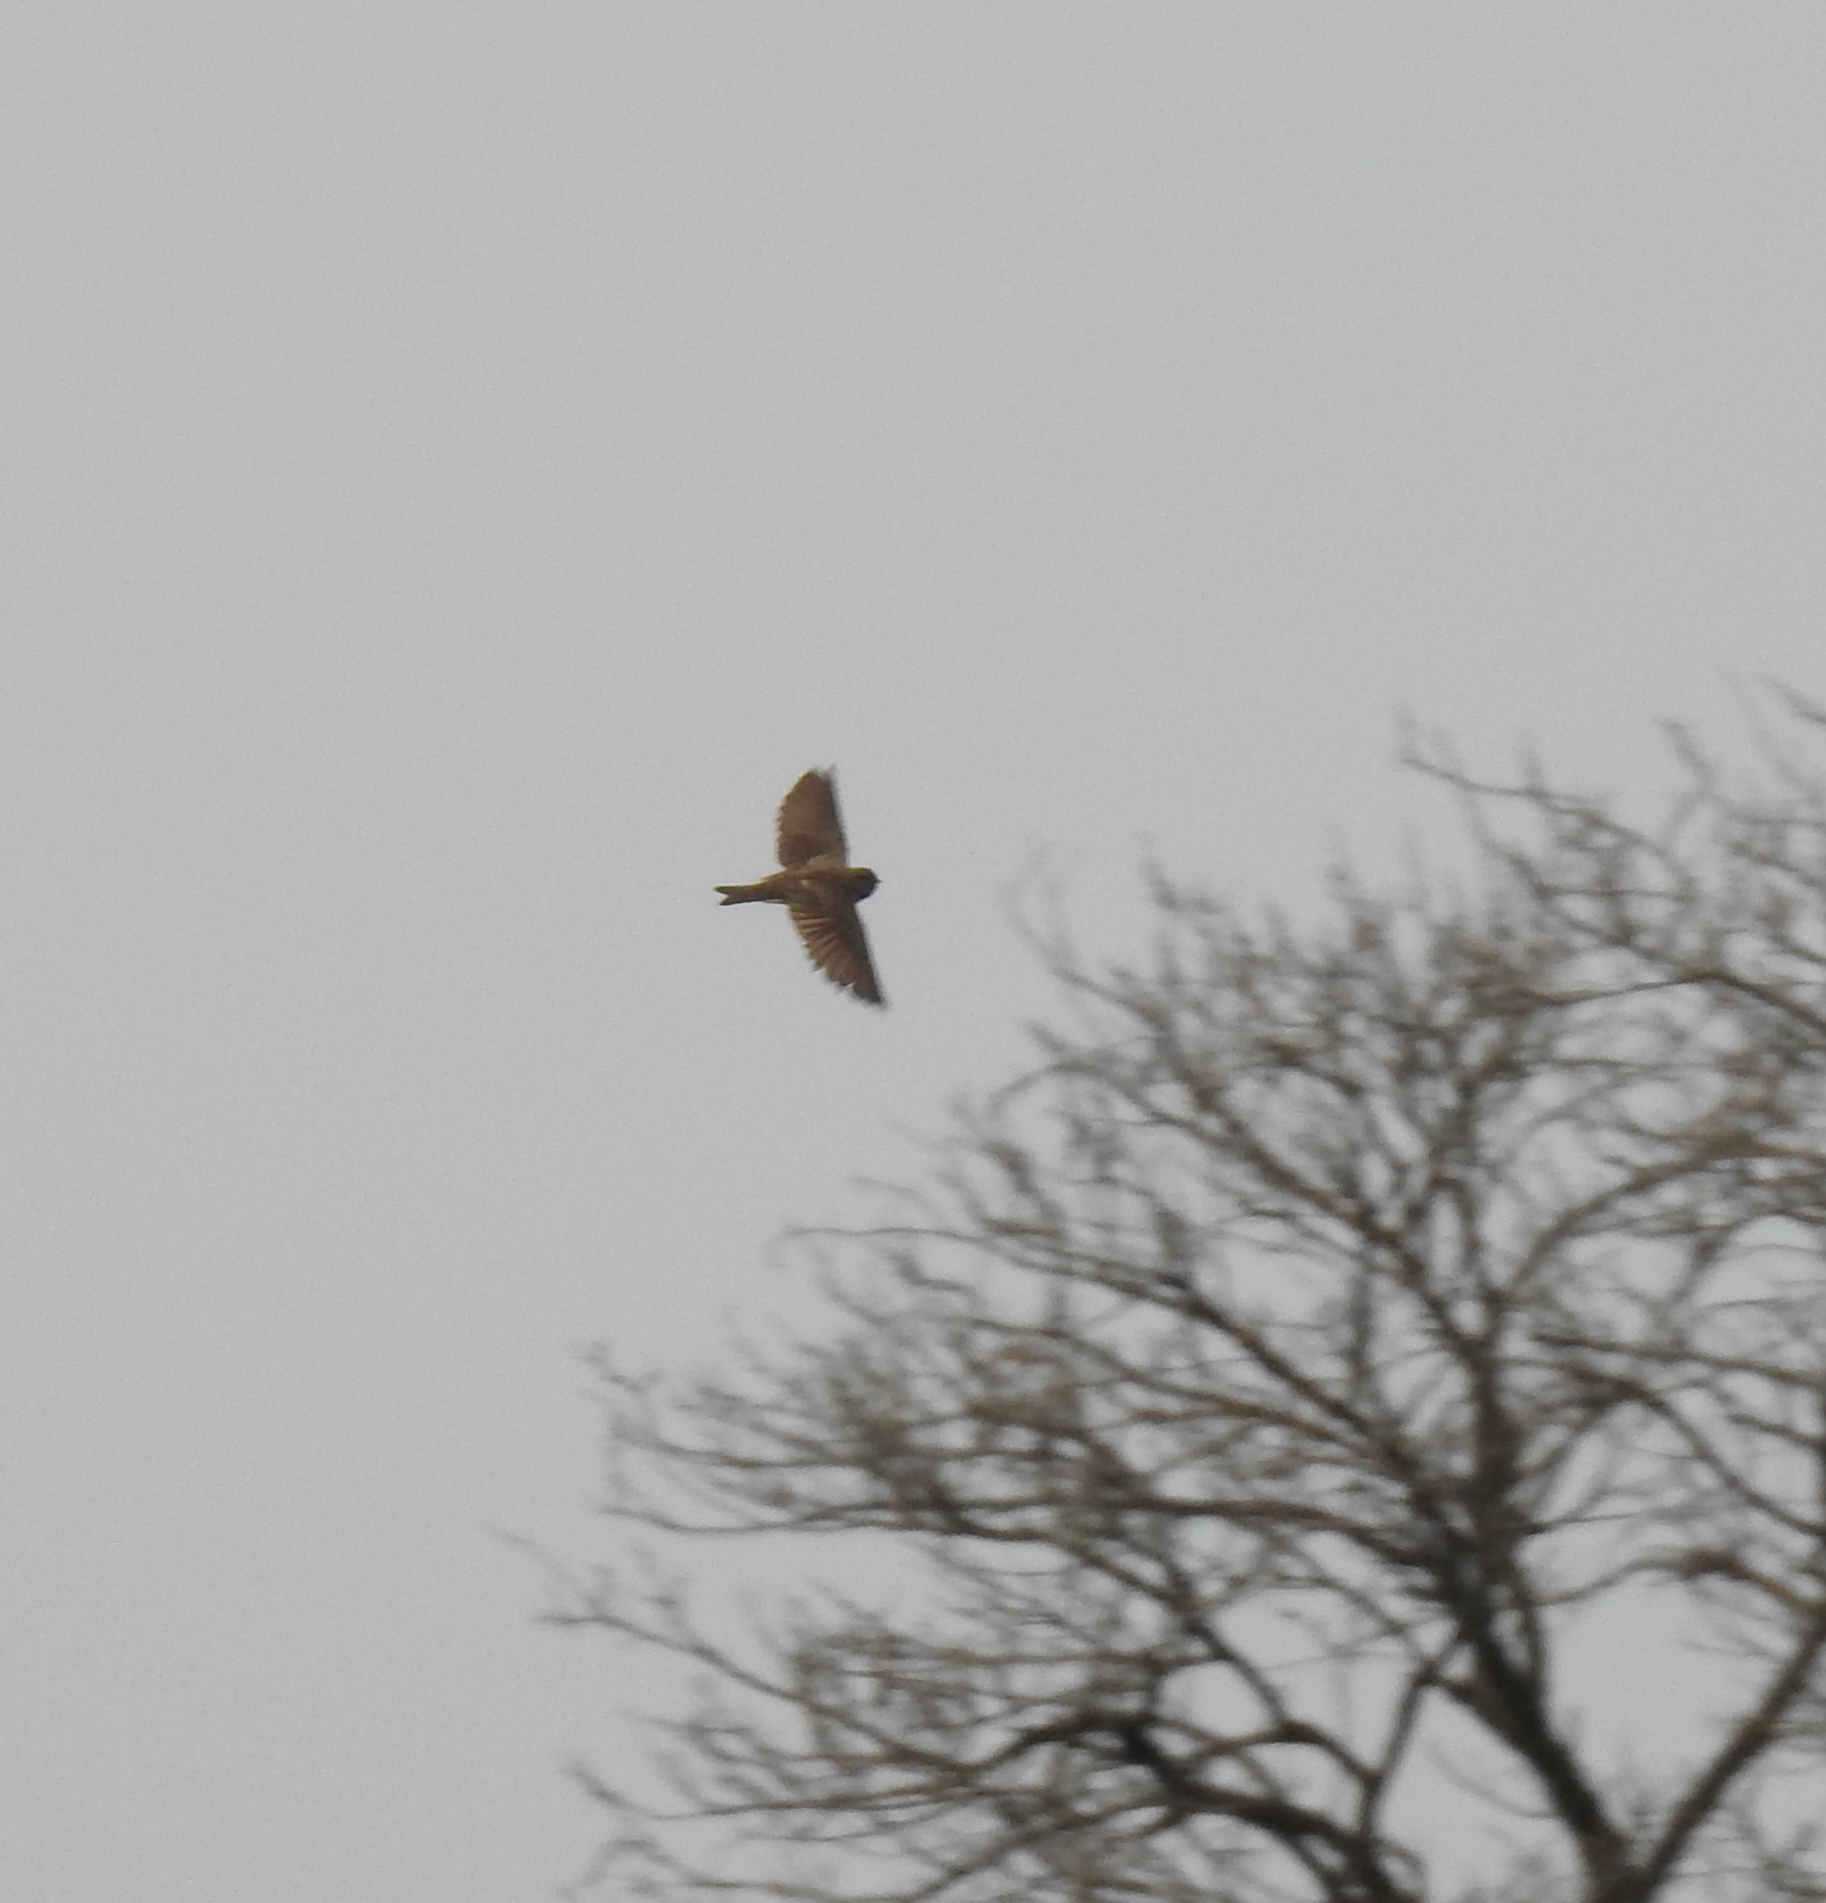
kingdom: Animalia
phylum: Chordata
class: Aves
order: Passeriformes
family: Hirundinidae
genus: Riparia
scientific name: Riparia paludicola
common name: Brown-throated martin
